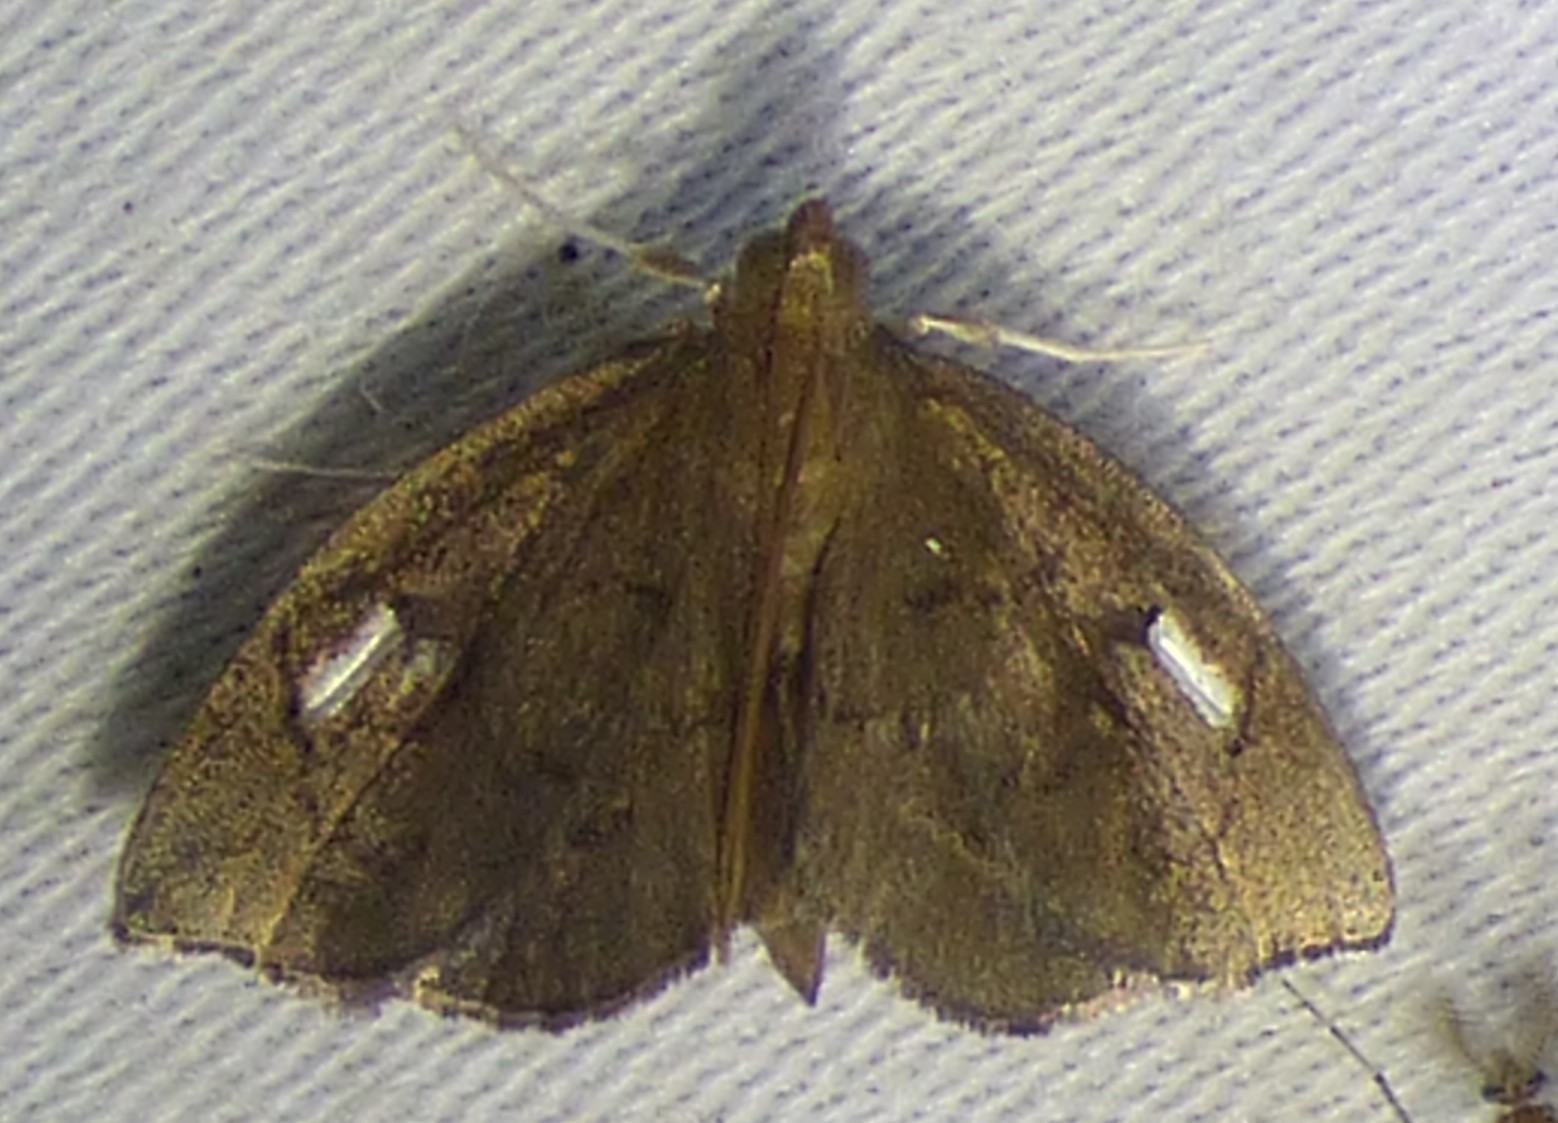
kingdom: Animalia
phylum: Arthropoda
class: Insecta
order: Lepidoptera
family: Crambidae
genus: Perispasta
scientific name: Perispasta caeculalis
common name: Titian peale's moth
